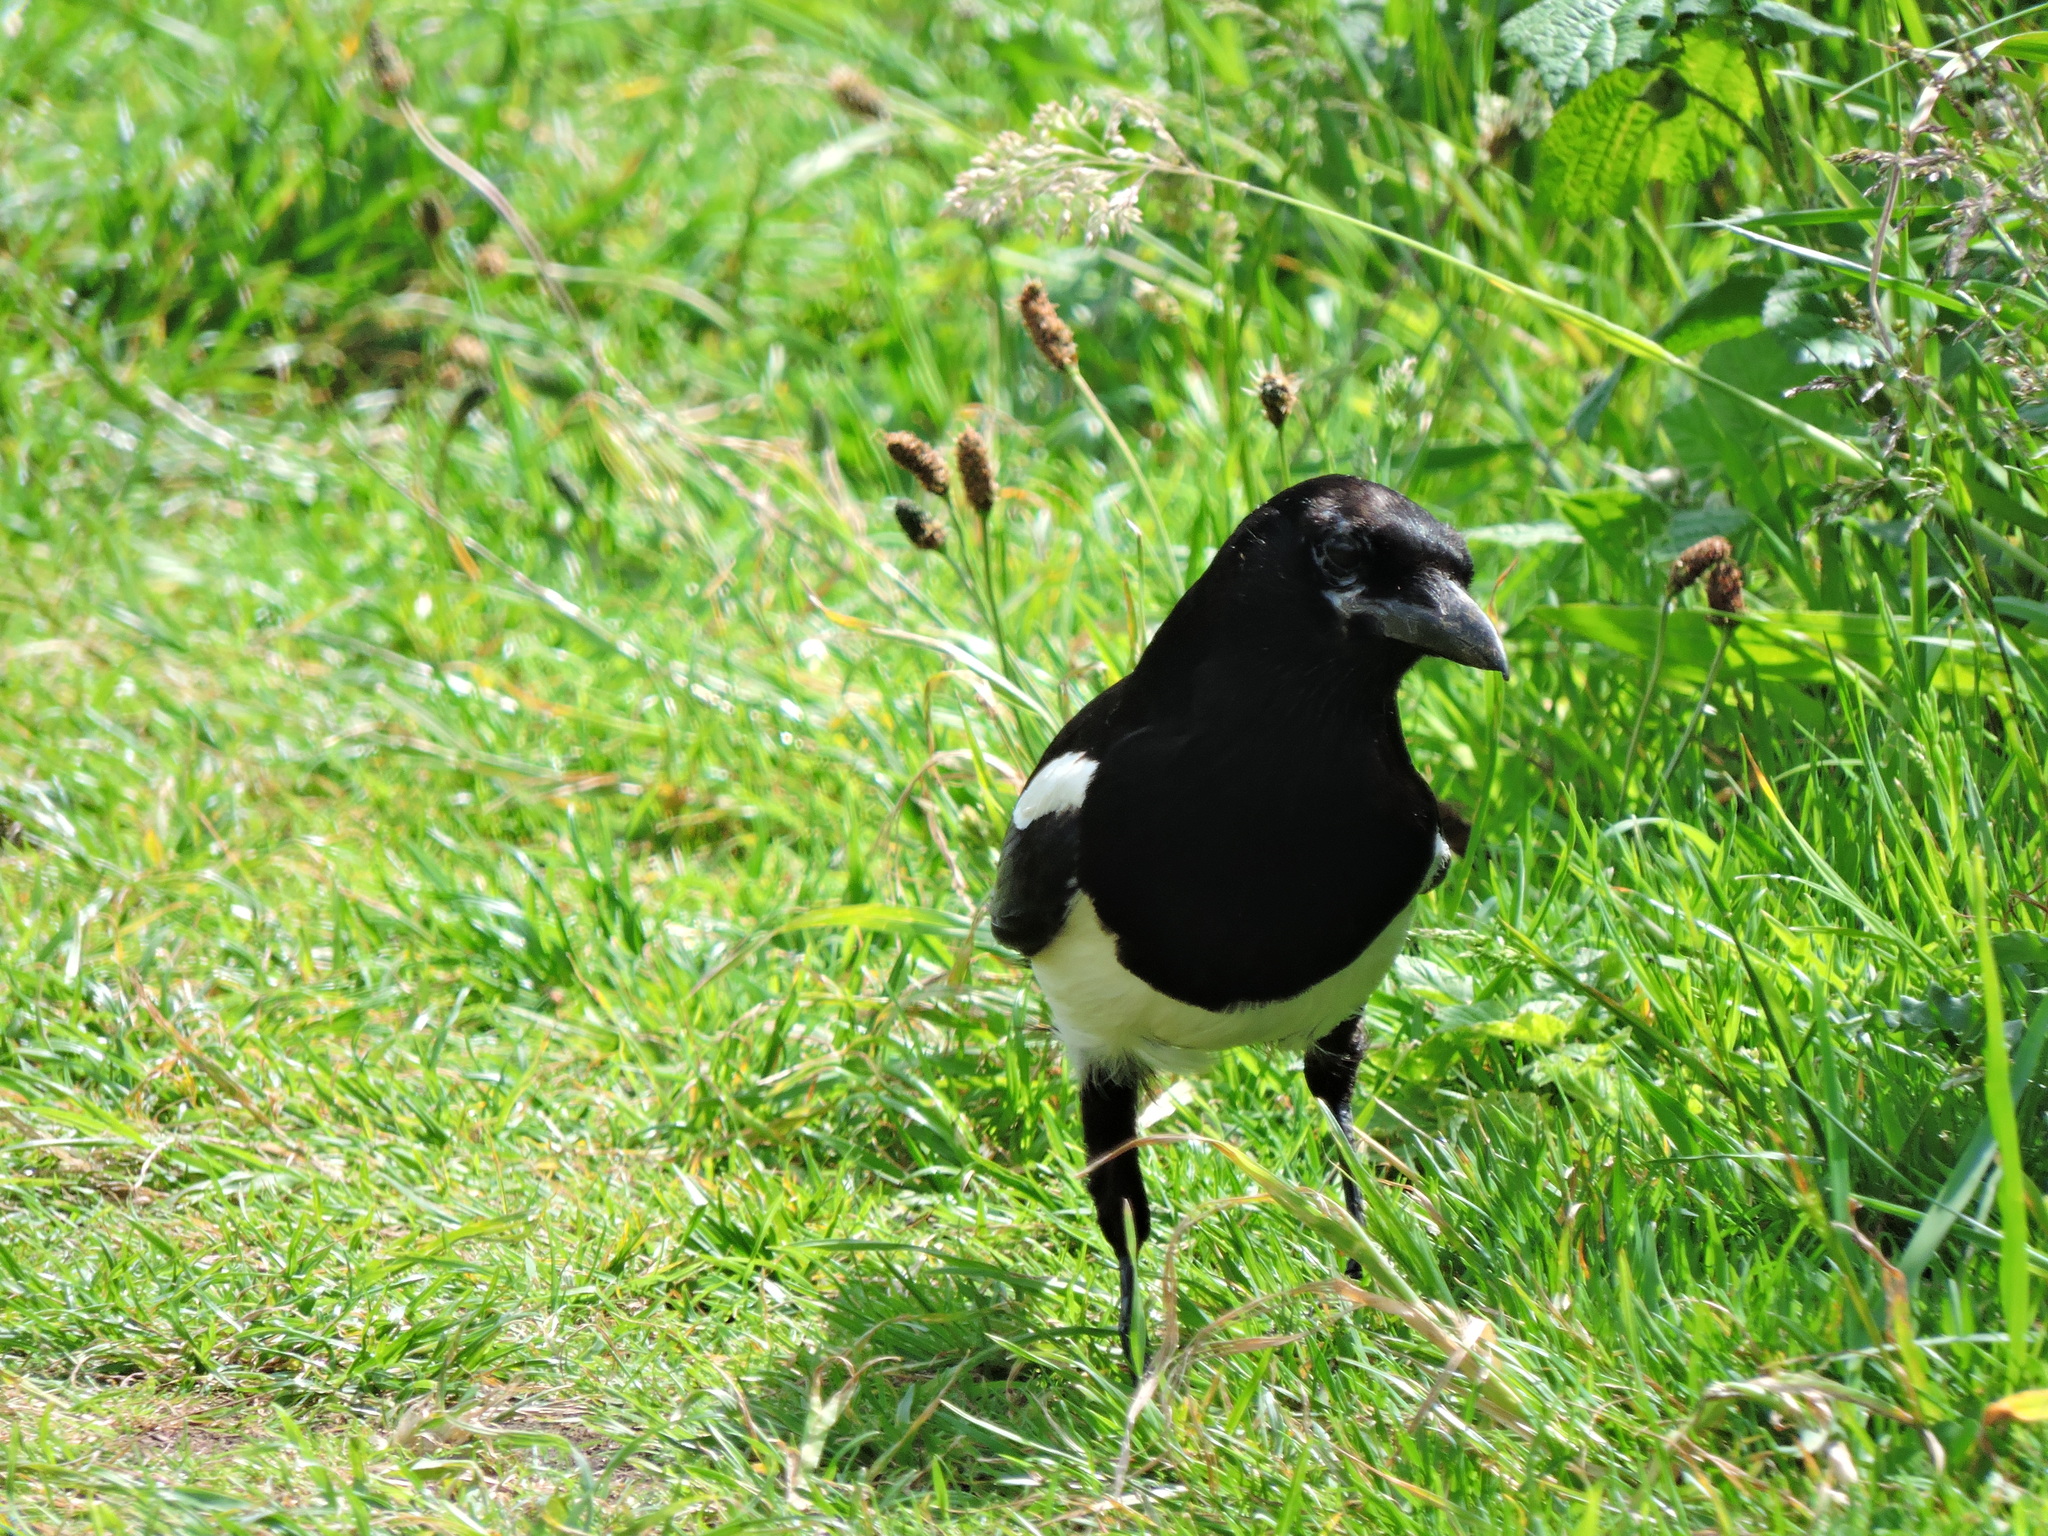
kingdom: Animalia
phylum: Chordata
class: Aves
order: Passeriformes
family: Corvidae
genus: Pica
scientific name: Pica pica
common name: Eurasian magpie
